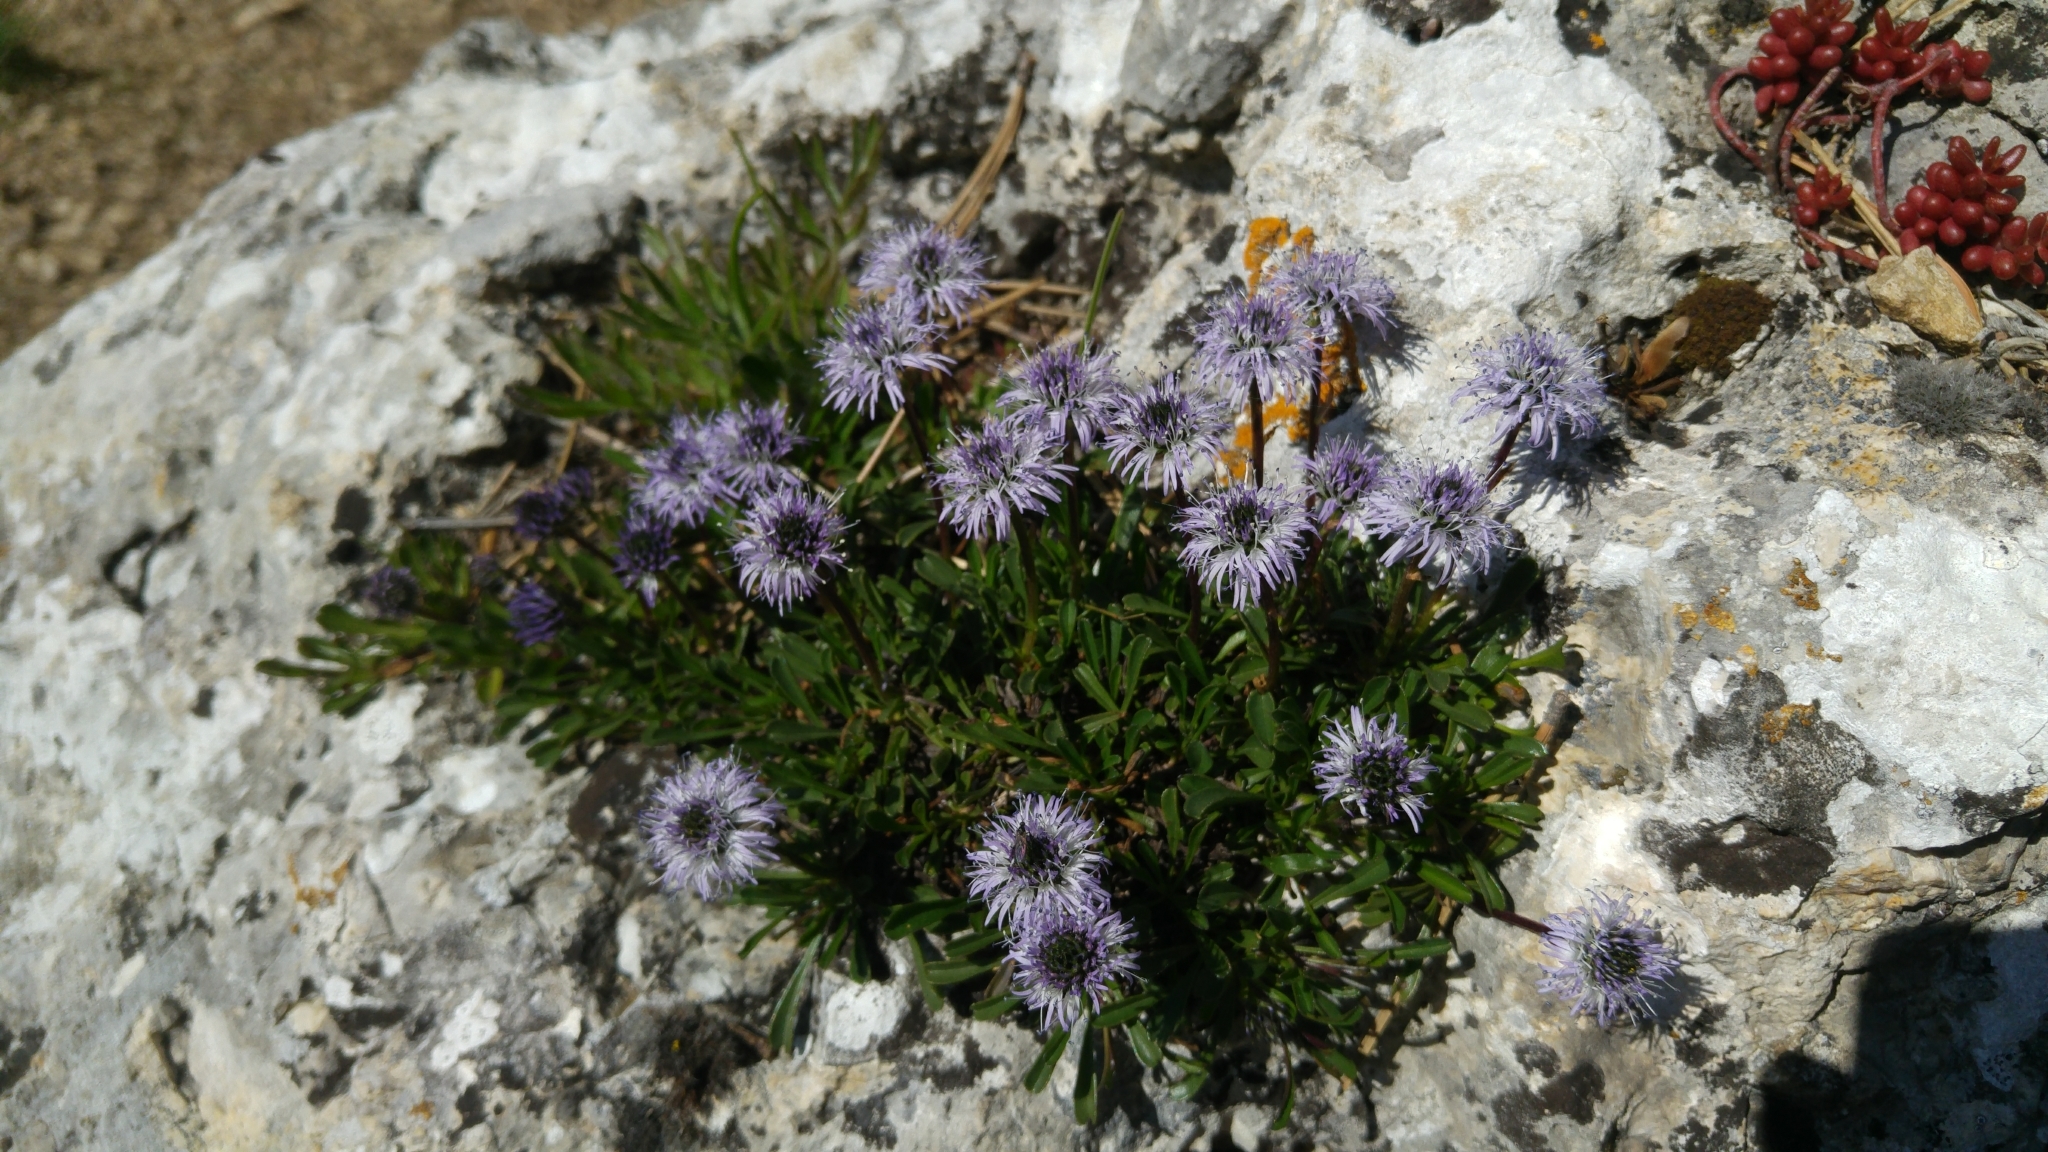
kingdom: Plantae
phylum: Tracheophyta
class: Magnoliopsida
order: Lamiales
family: Plantaginaceae
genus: Globularia
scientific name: Globularia cordifolia
